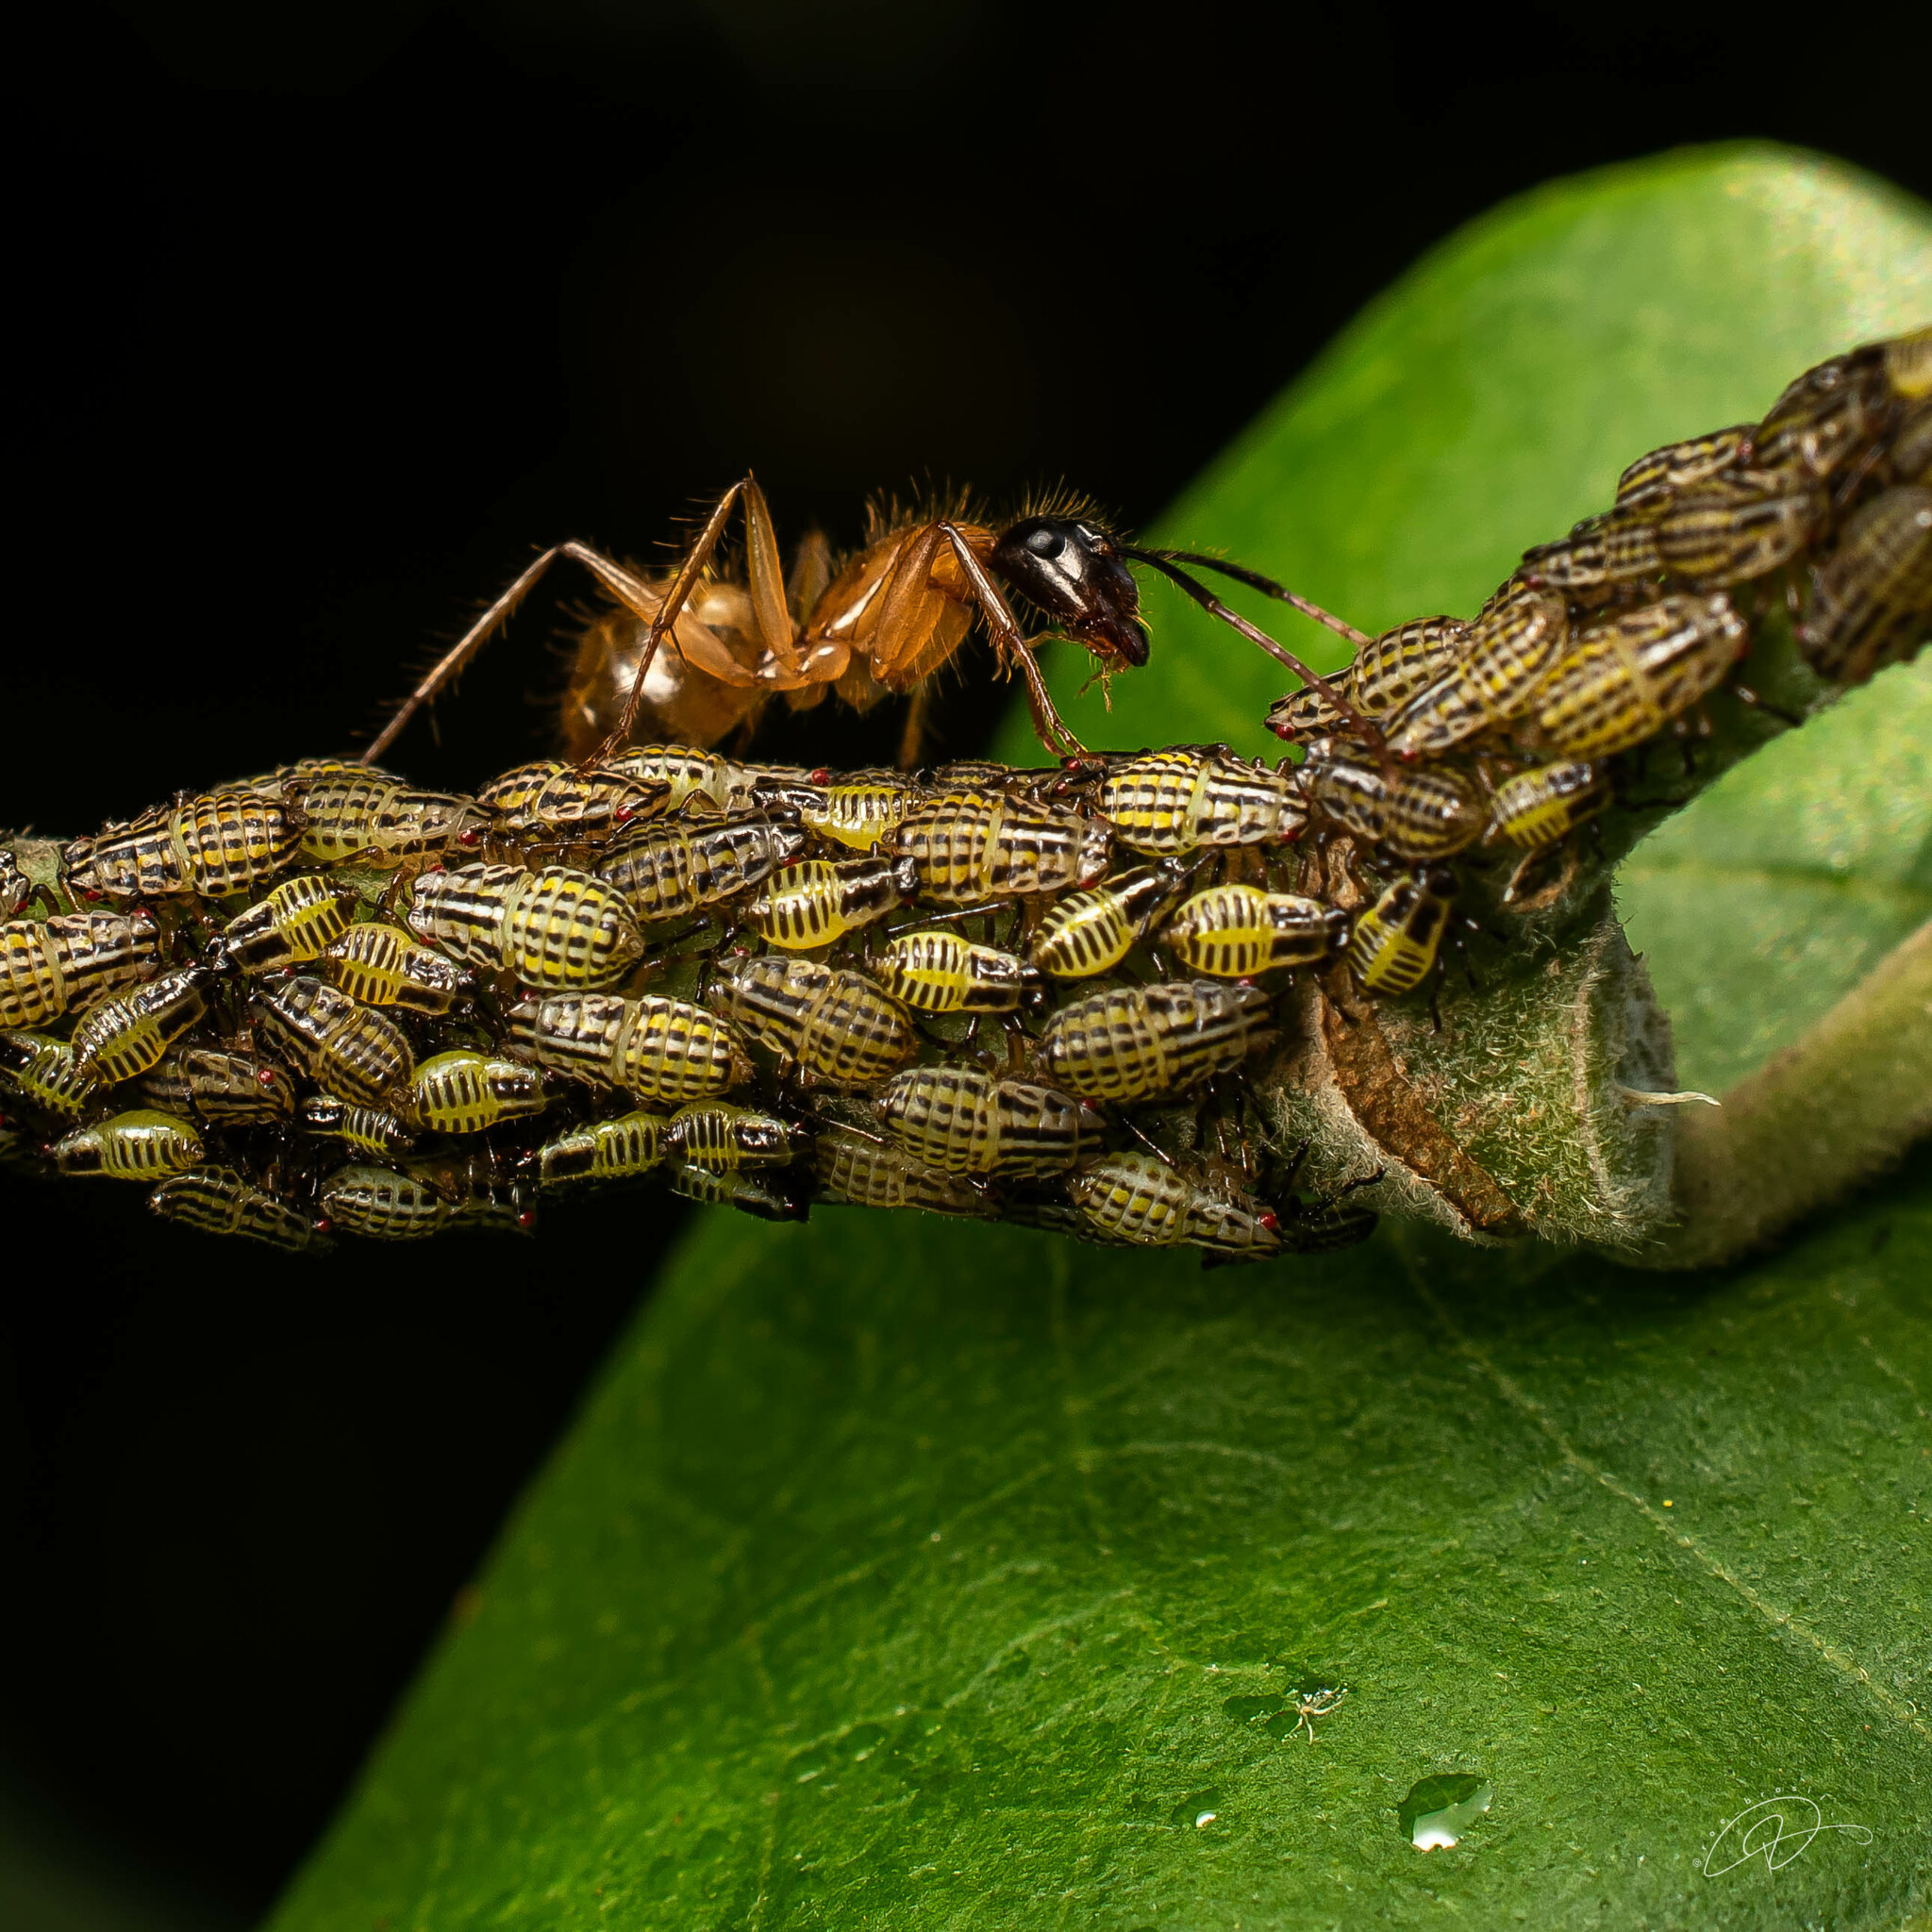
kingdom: Animalia
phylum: Arthropoda
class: Insecta
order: Hemiptera
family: Aetalionidae
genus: Aetalion
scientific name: Aetalion reticulatum
